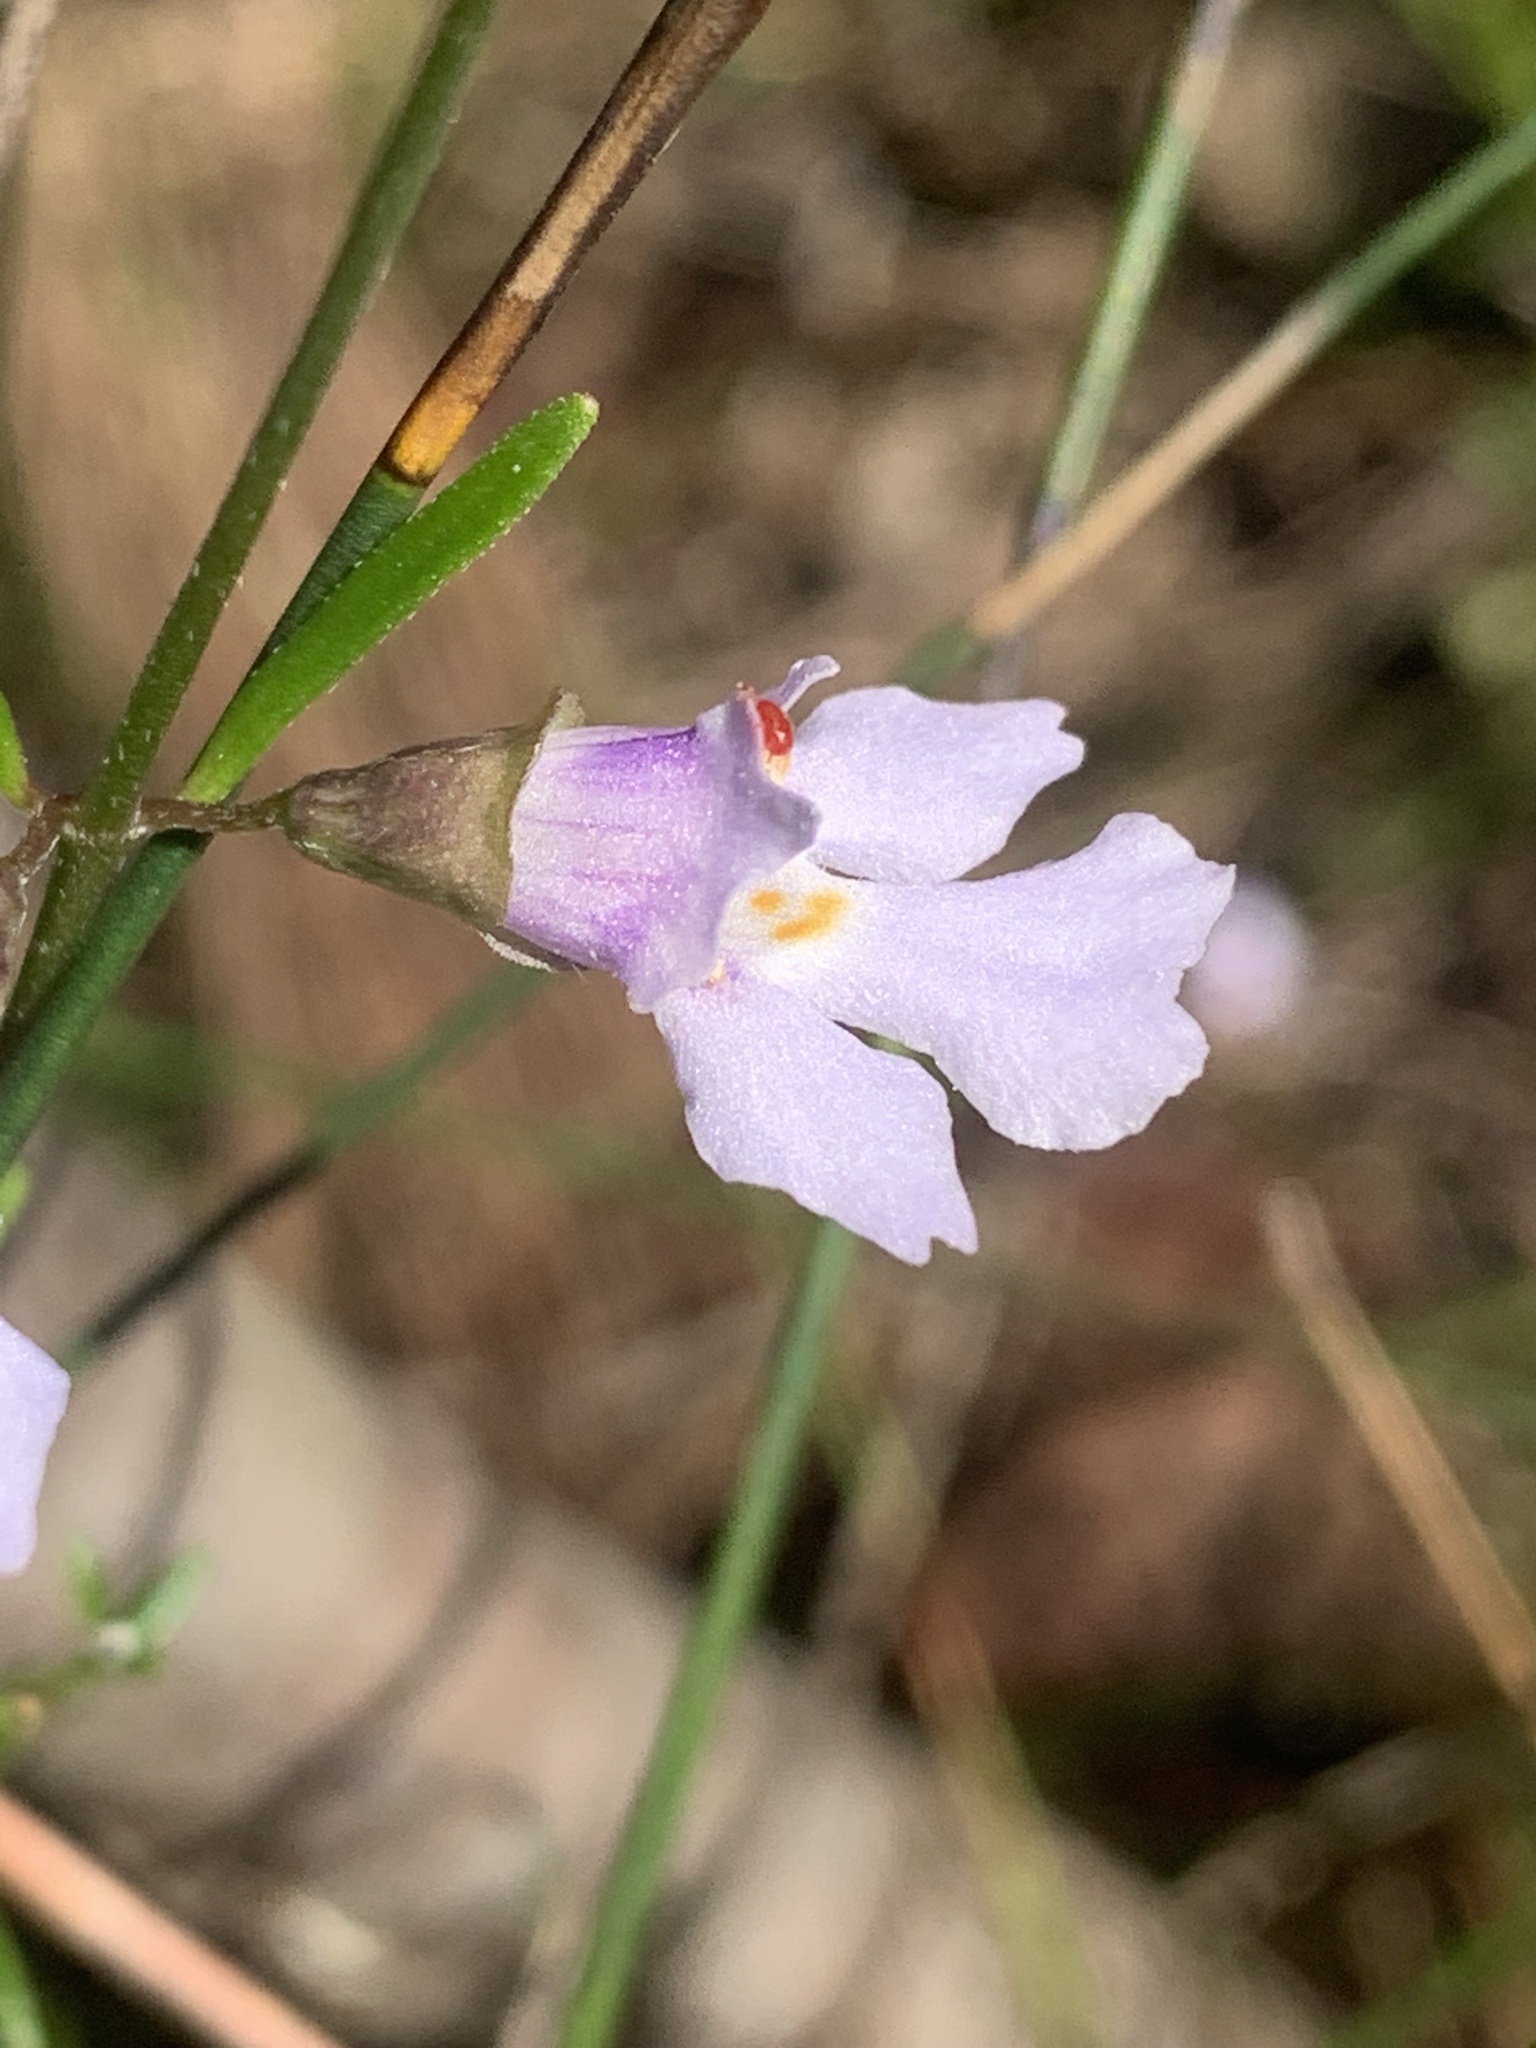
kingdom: Plantae
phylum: Tracheophyta
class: Magnoliopsida
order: Lamiales
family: Lamiaceae
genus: Prostanthera
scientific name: Prostanthera junonis
